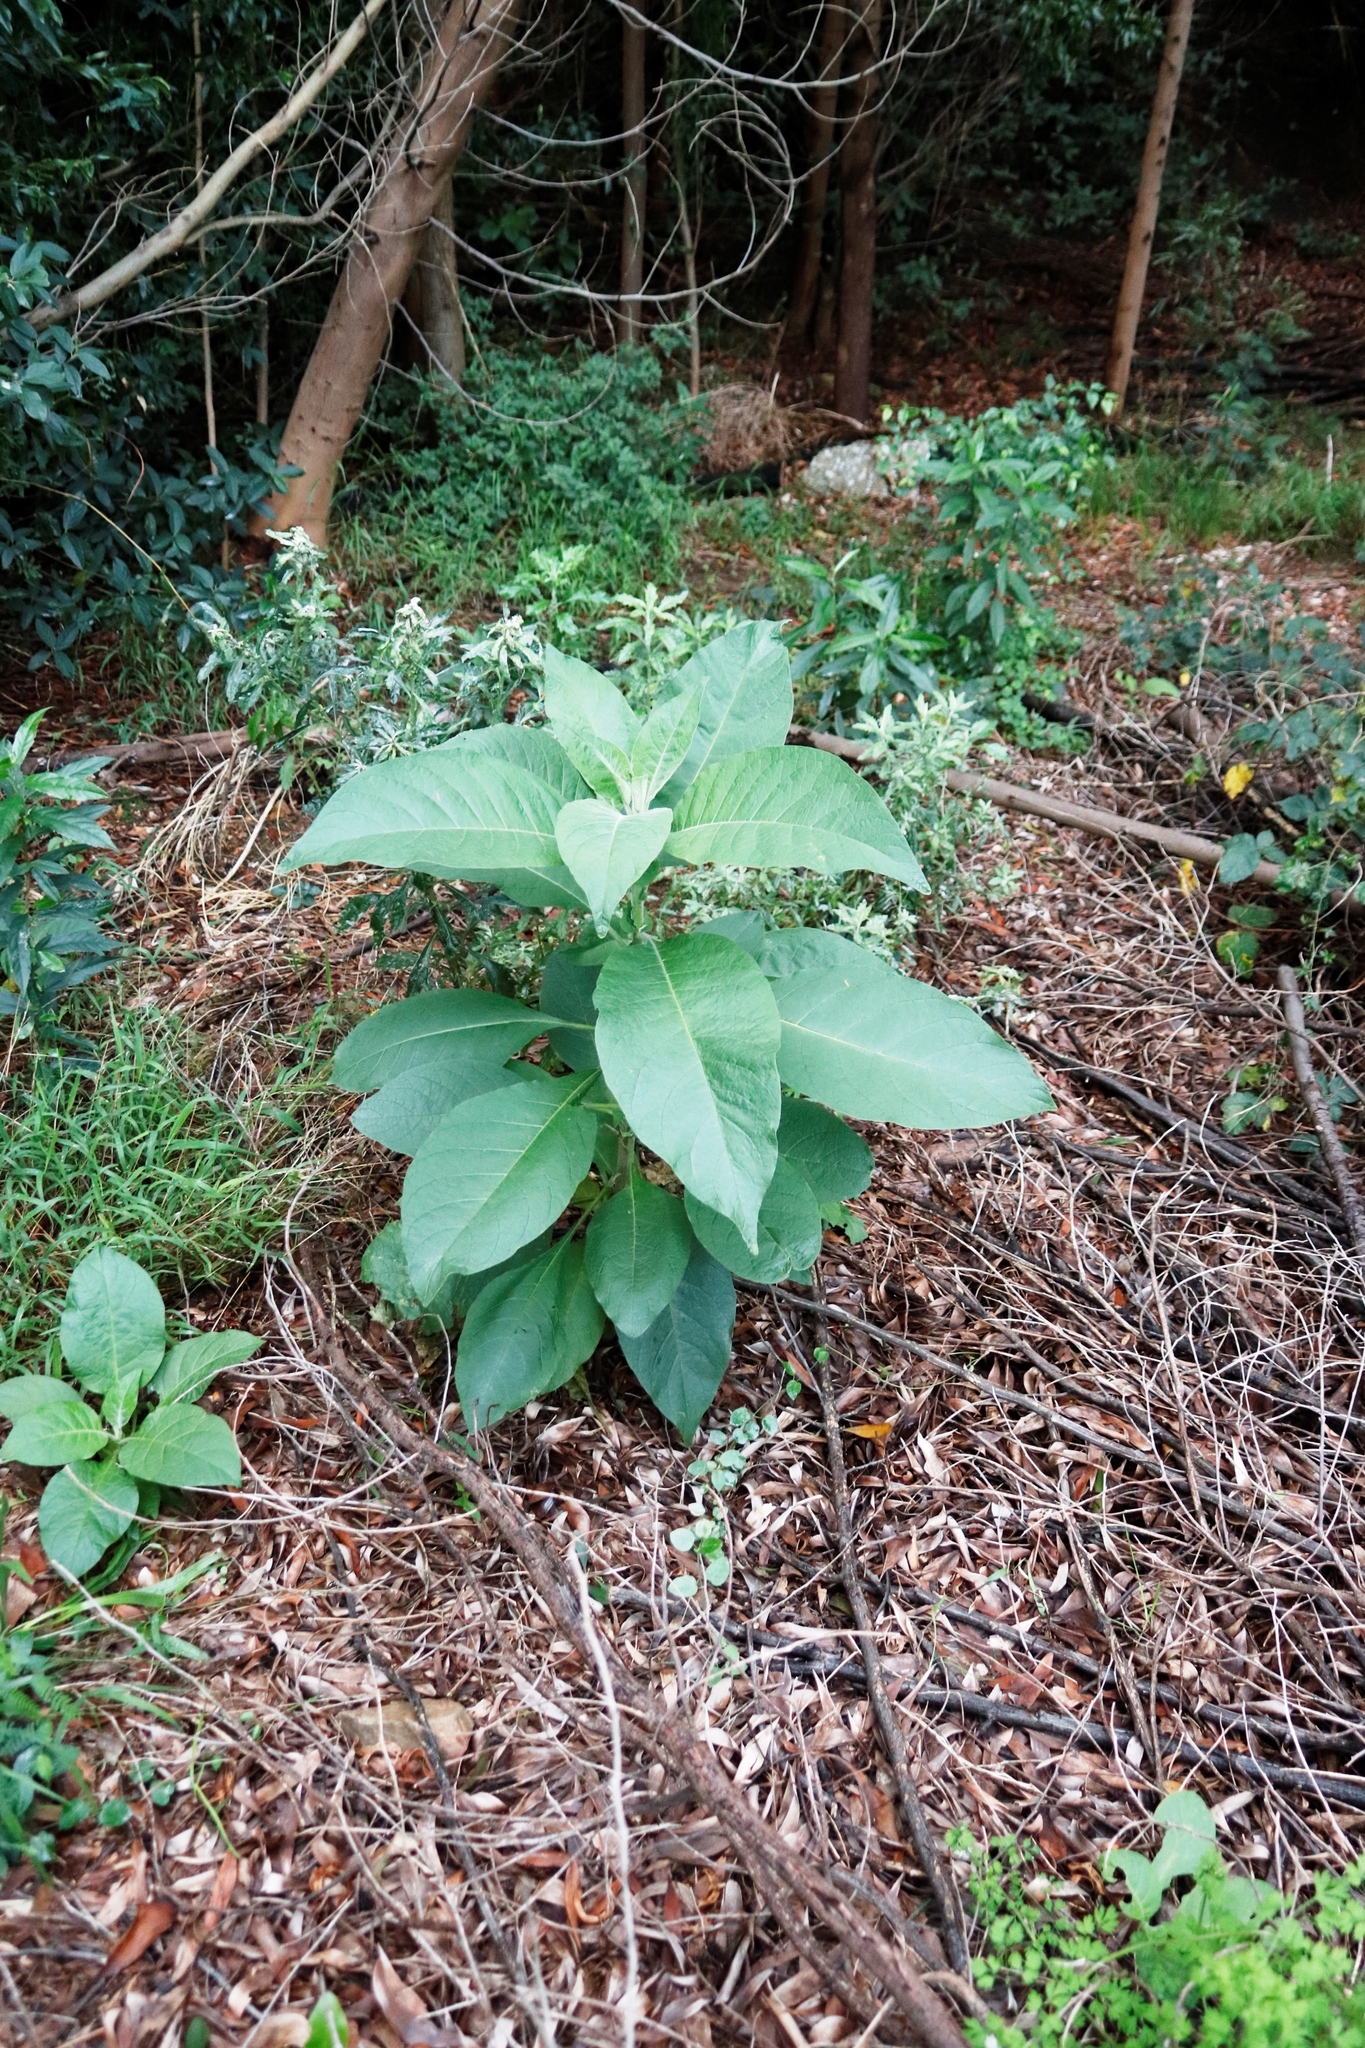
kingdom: Plantae
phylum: Tracheophyta
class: Magnoliopsida
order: Solanales
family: Solanaceae
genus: Solanum
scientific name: Solanum mauritianum
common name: Earleaf nightshade
